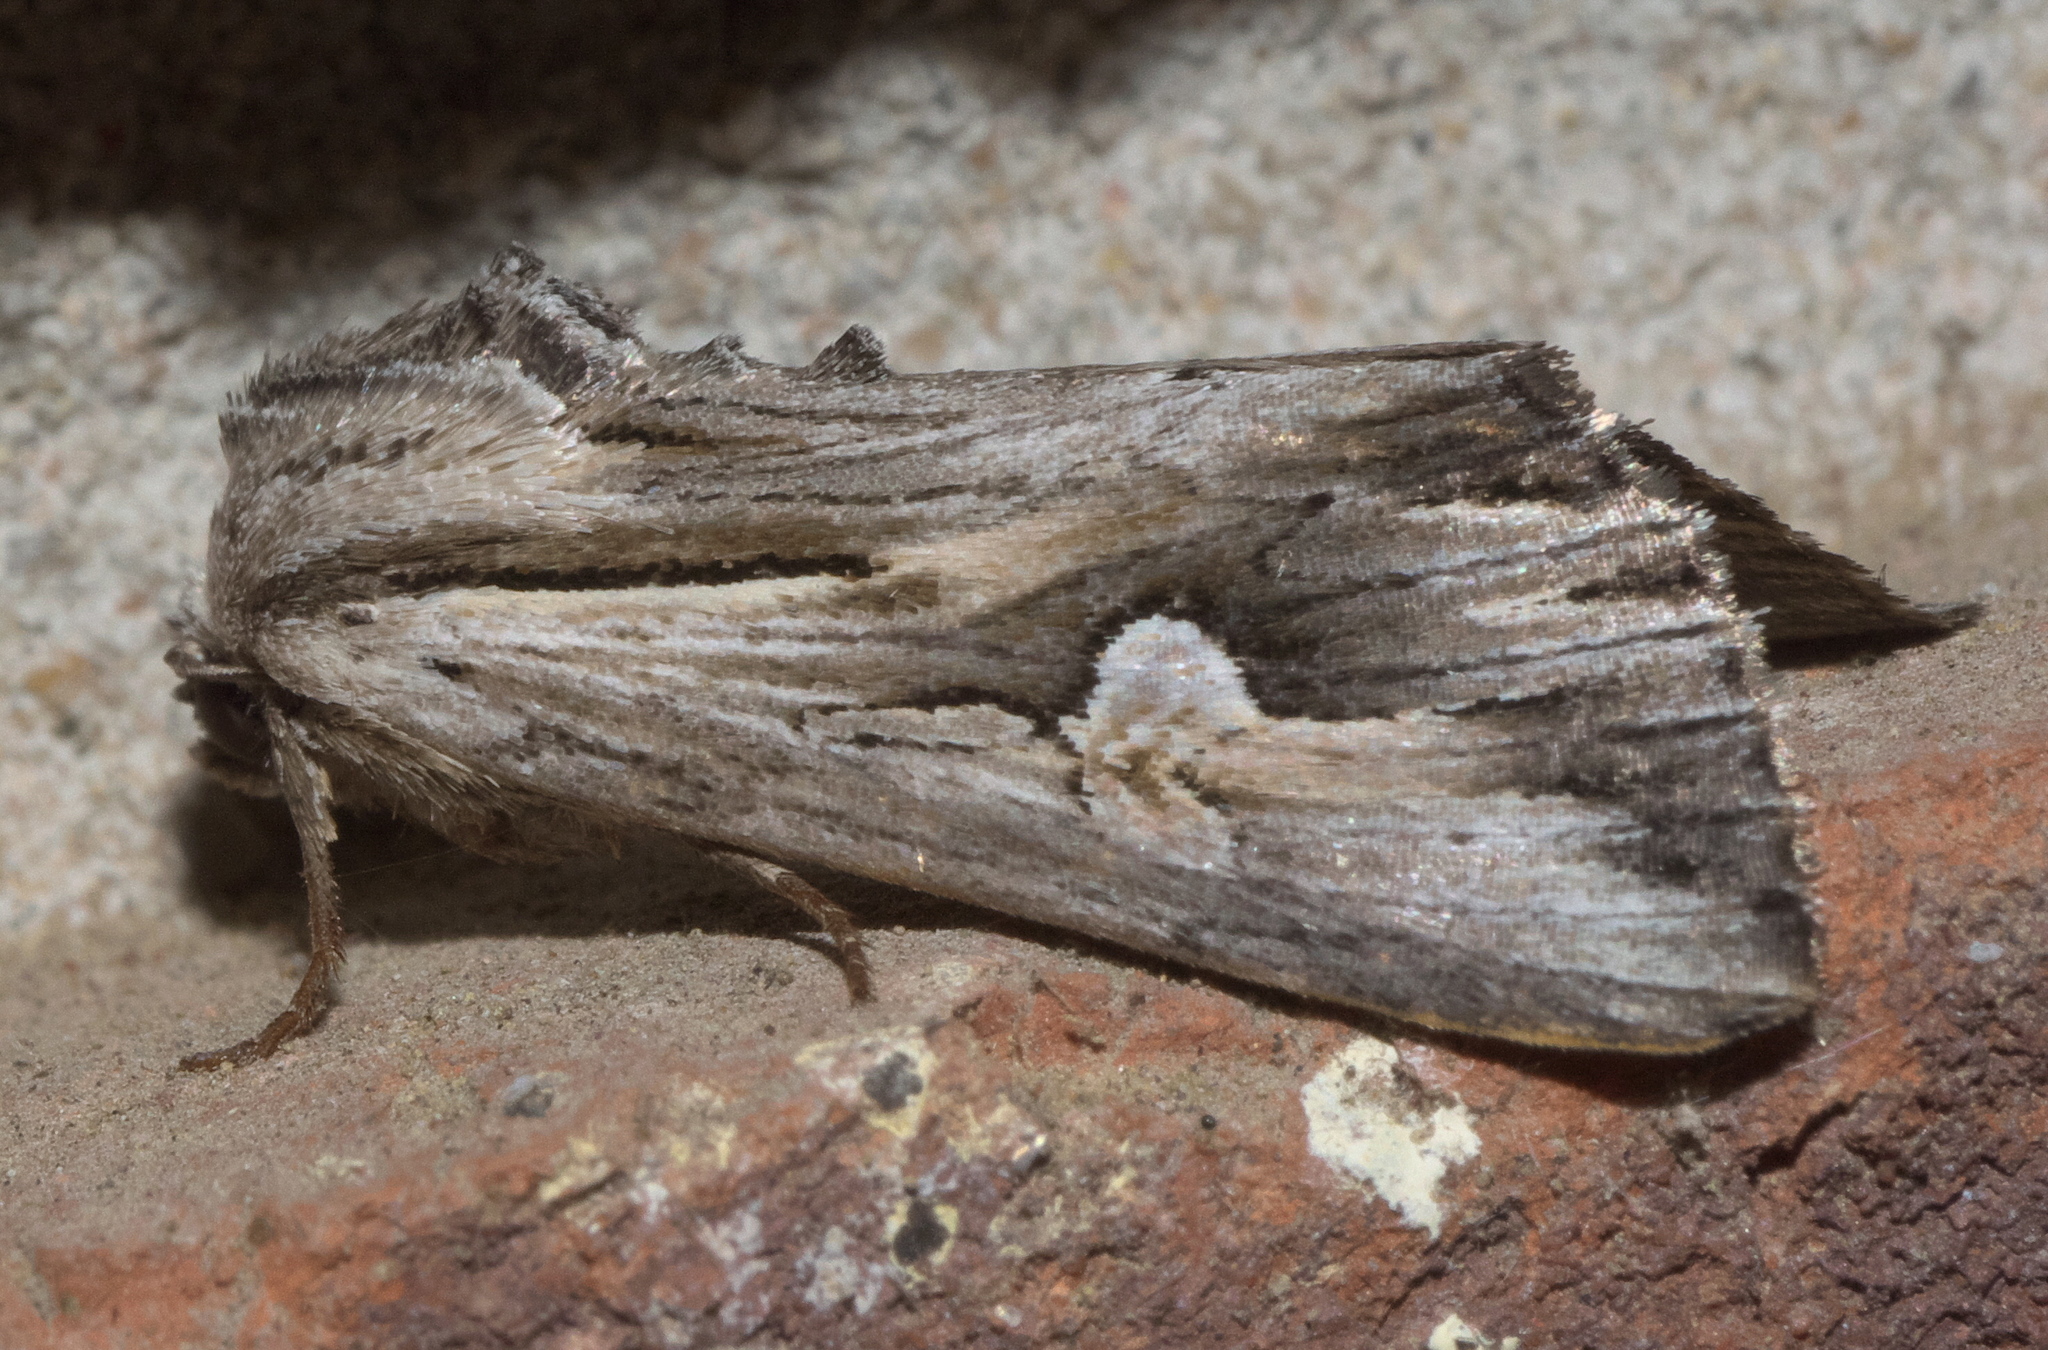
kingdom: Animalia
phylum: Arthropoda
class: Insecta
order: Lepidoptera
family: Noctuidae
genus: Nedra
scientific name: Nedra ramosula
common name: Gray half-spot
